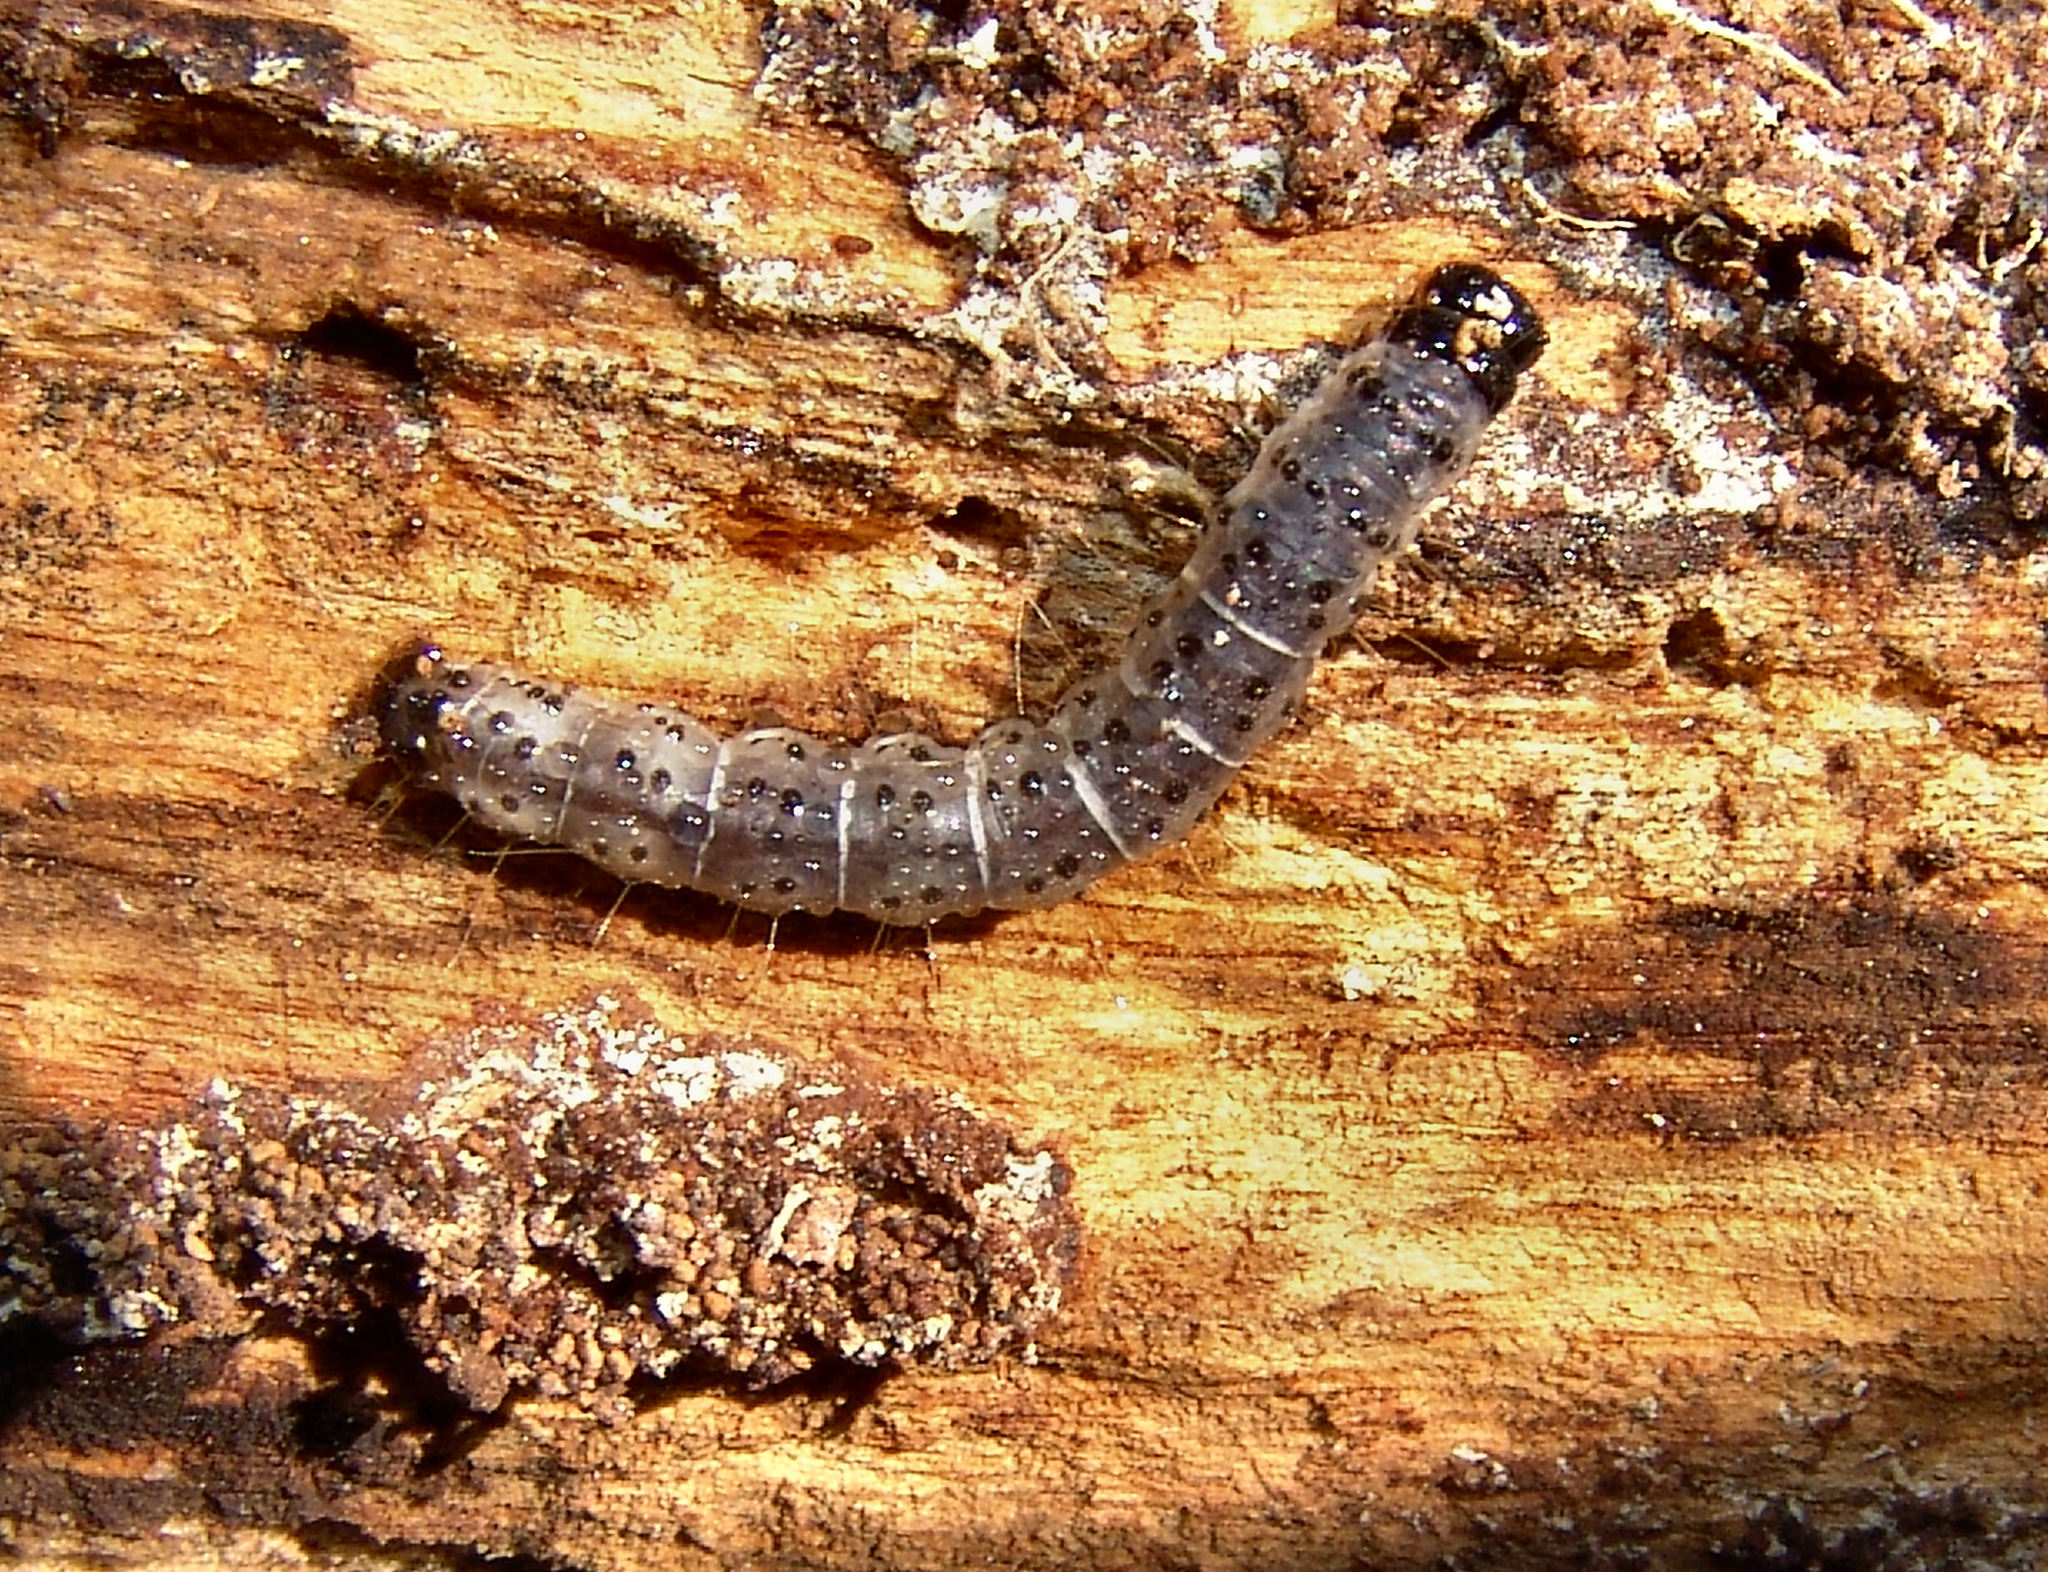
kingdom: Animalia
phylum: Arthropoda
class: Insecta
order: Lepidoptera
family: Erebidae
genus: Scolecocampa
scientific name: Scolecocampa liburna
